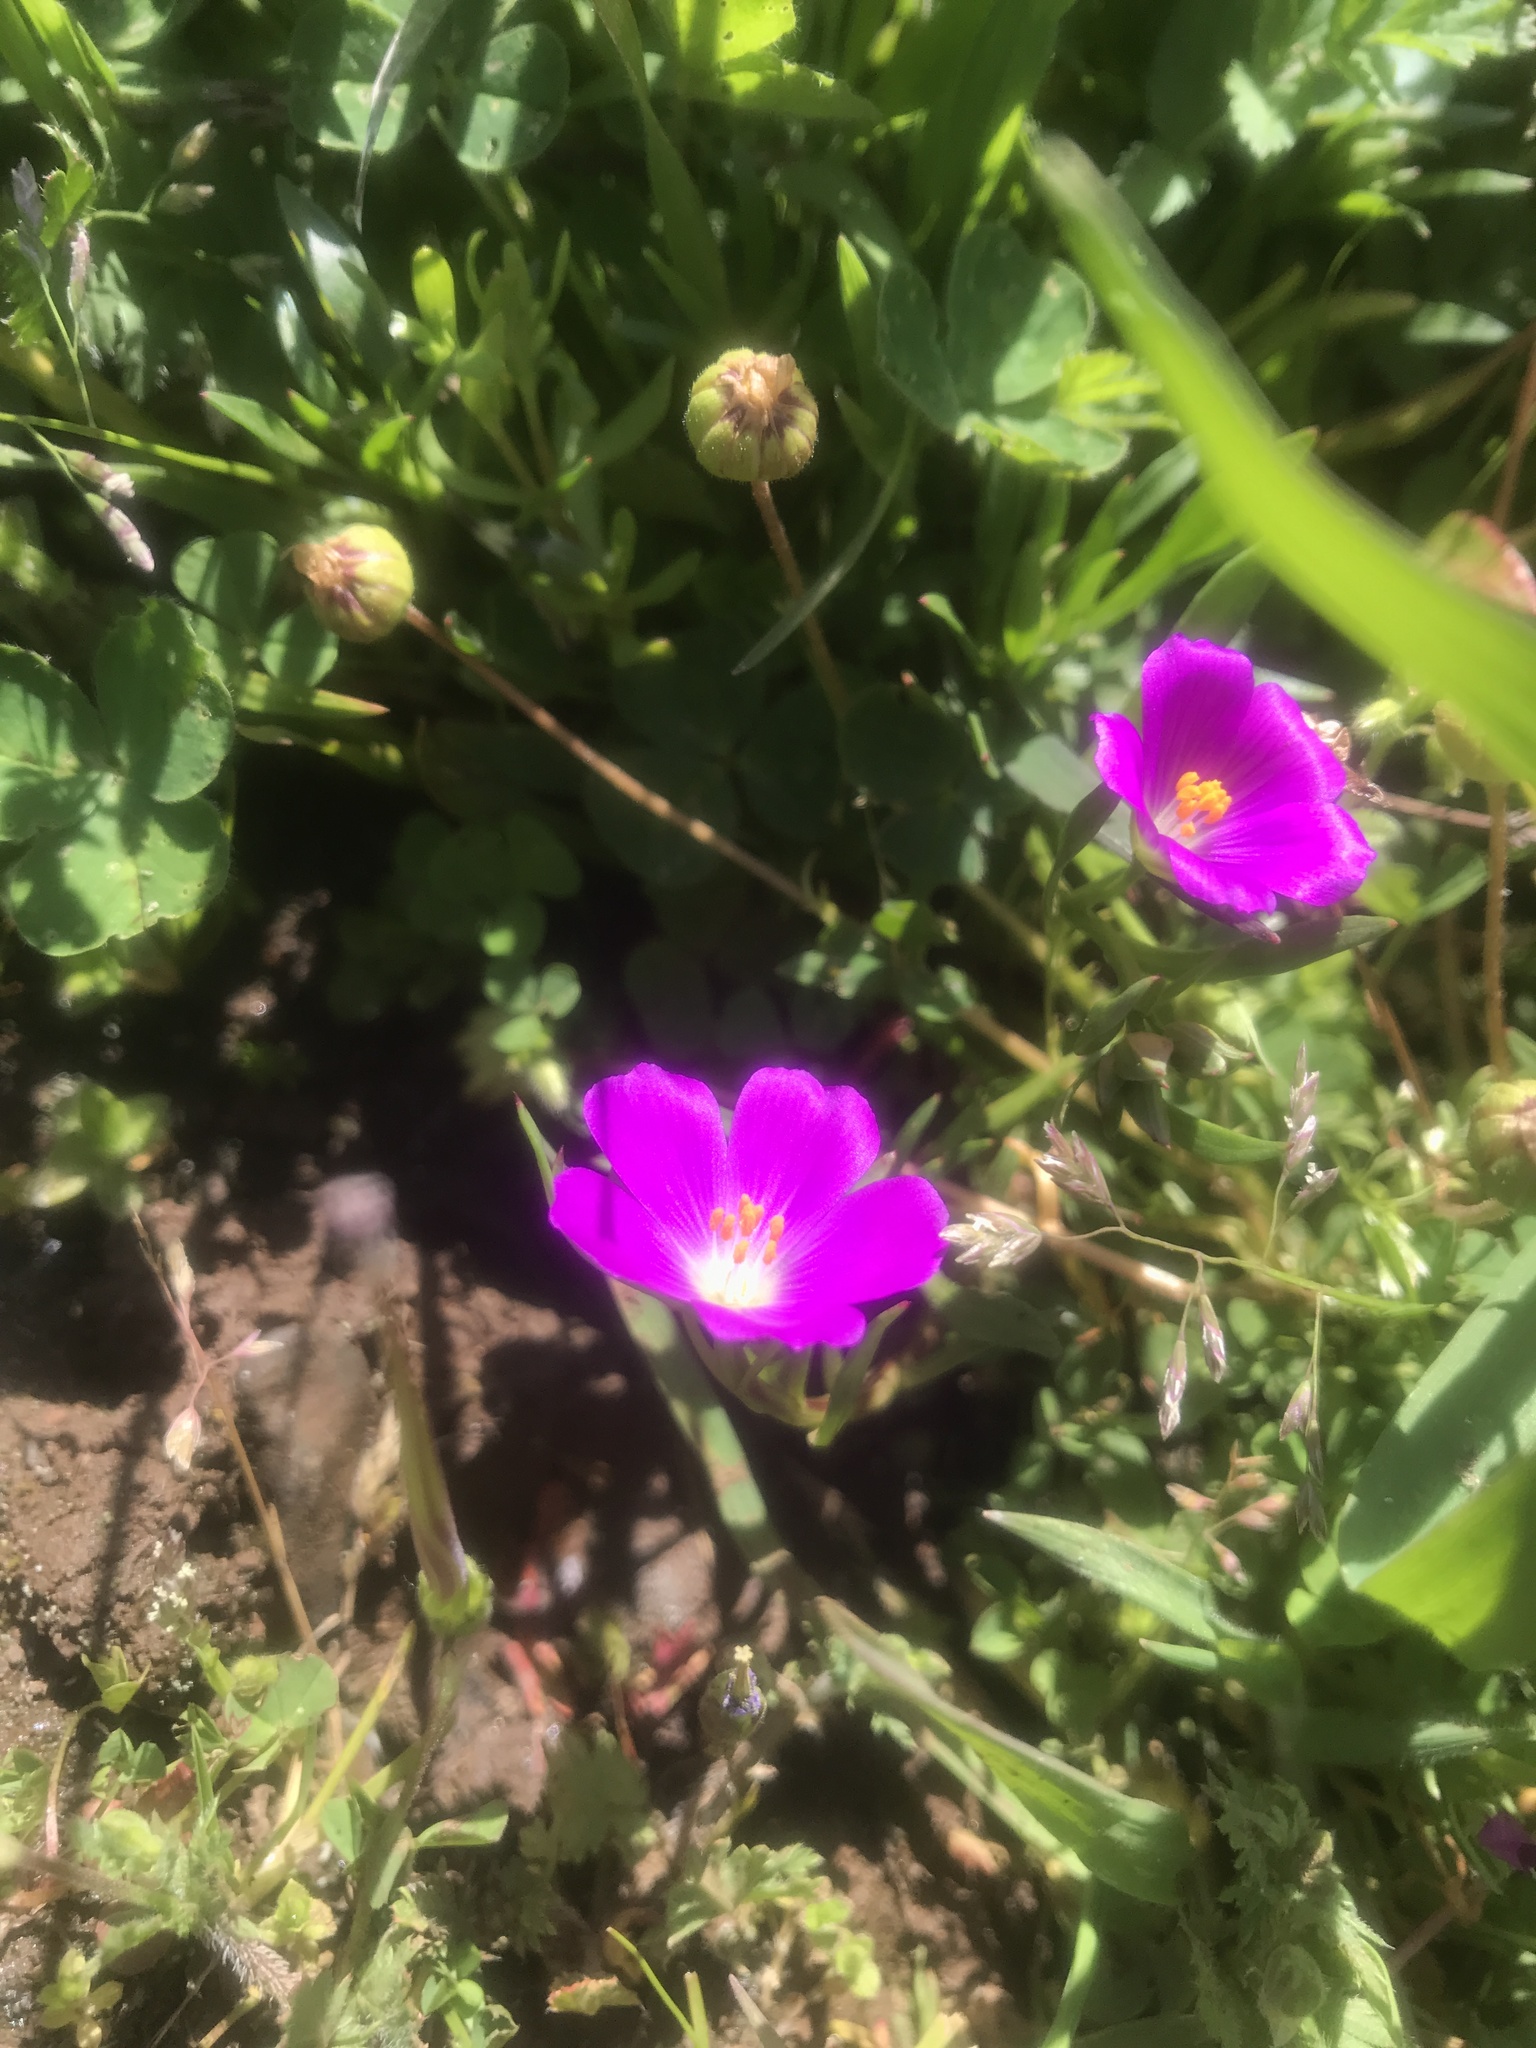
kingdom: Plantae
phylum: Tracheophyta
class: Magnoliopsida
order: Caryophyllales
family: Montiaceae
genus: Calandrinia
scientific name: Calandrinia menziesii
